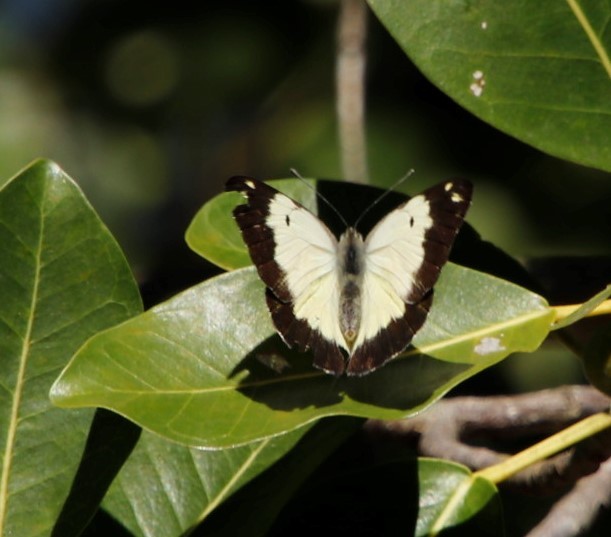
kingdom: Animalia
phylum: Arthropoda
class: Insecta
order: Lepidoptera
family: Pieridae
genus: Belenois
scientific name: Belenois creona
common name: African caper white
